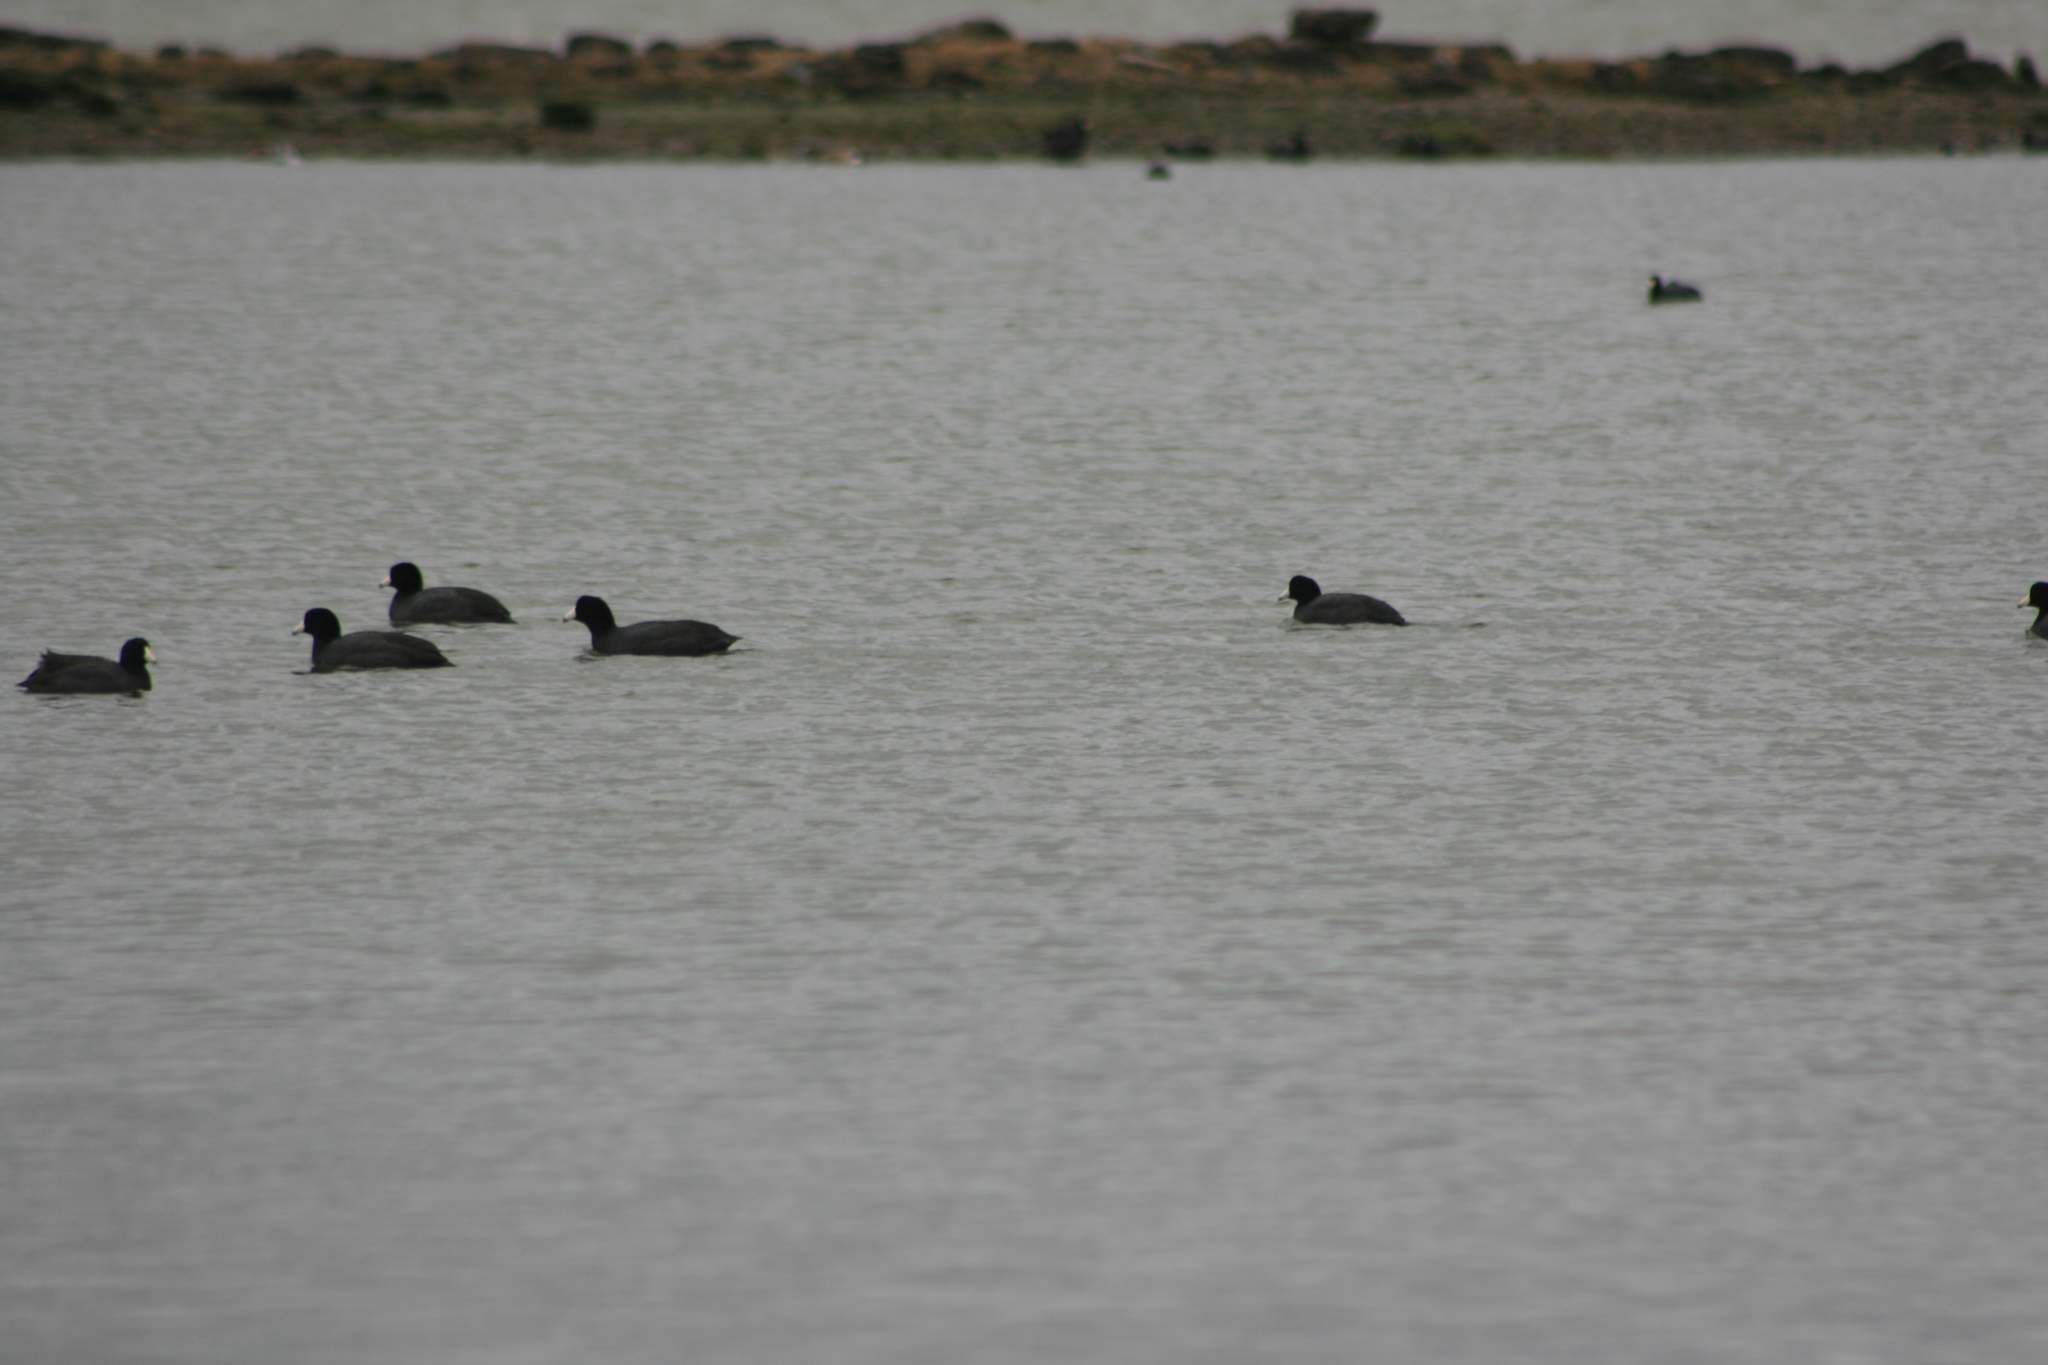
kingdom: Animalia
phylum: Chordata
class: Aves
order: Gruiformes
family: Rallidae
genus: Fulica
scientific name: Fulica americana
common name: American coot
